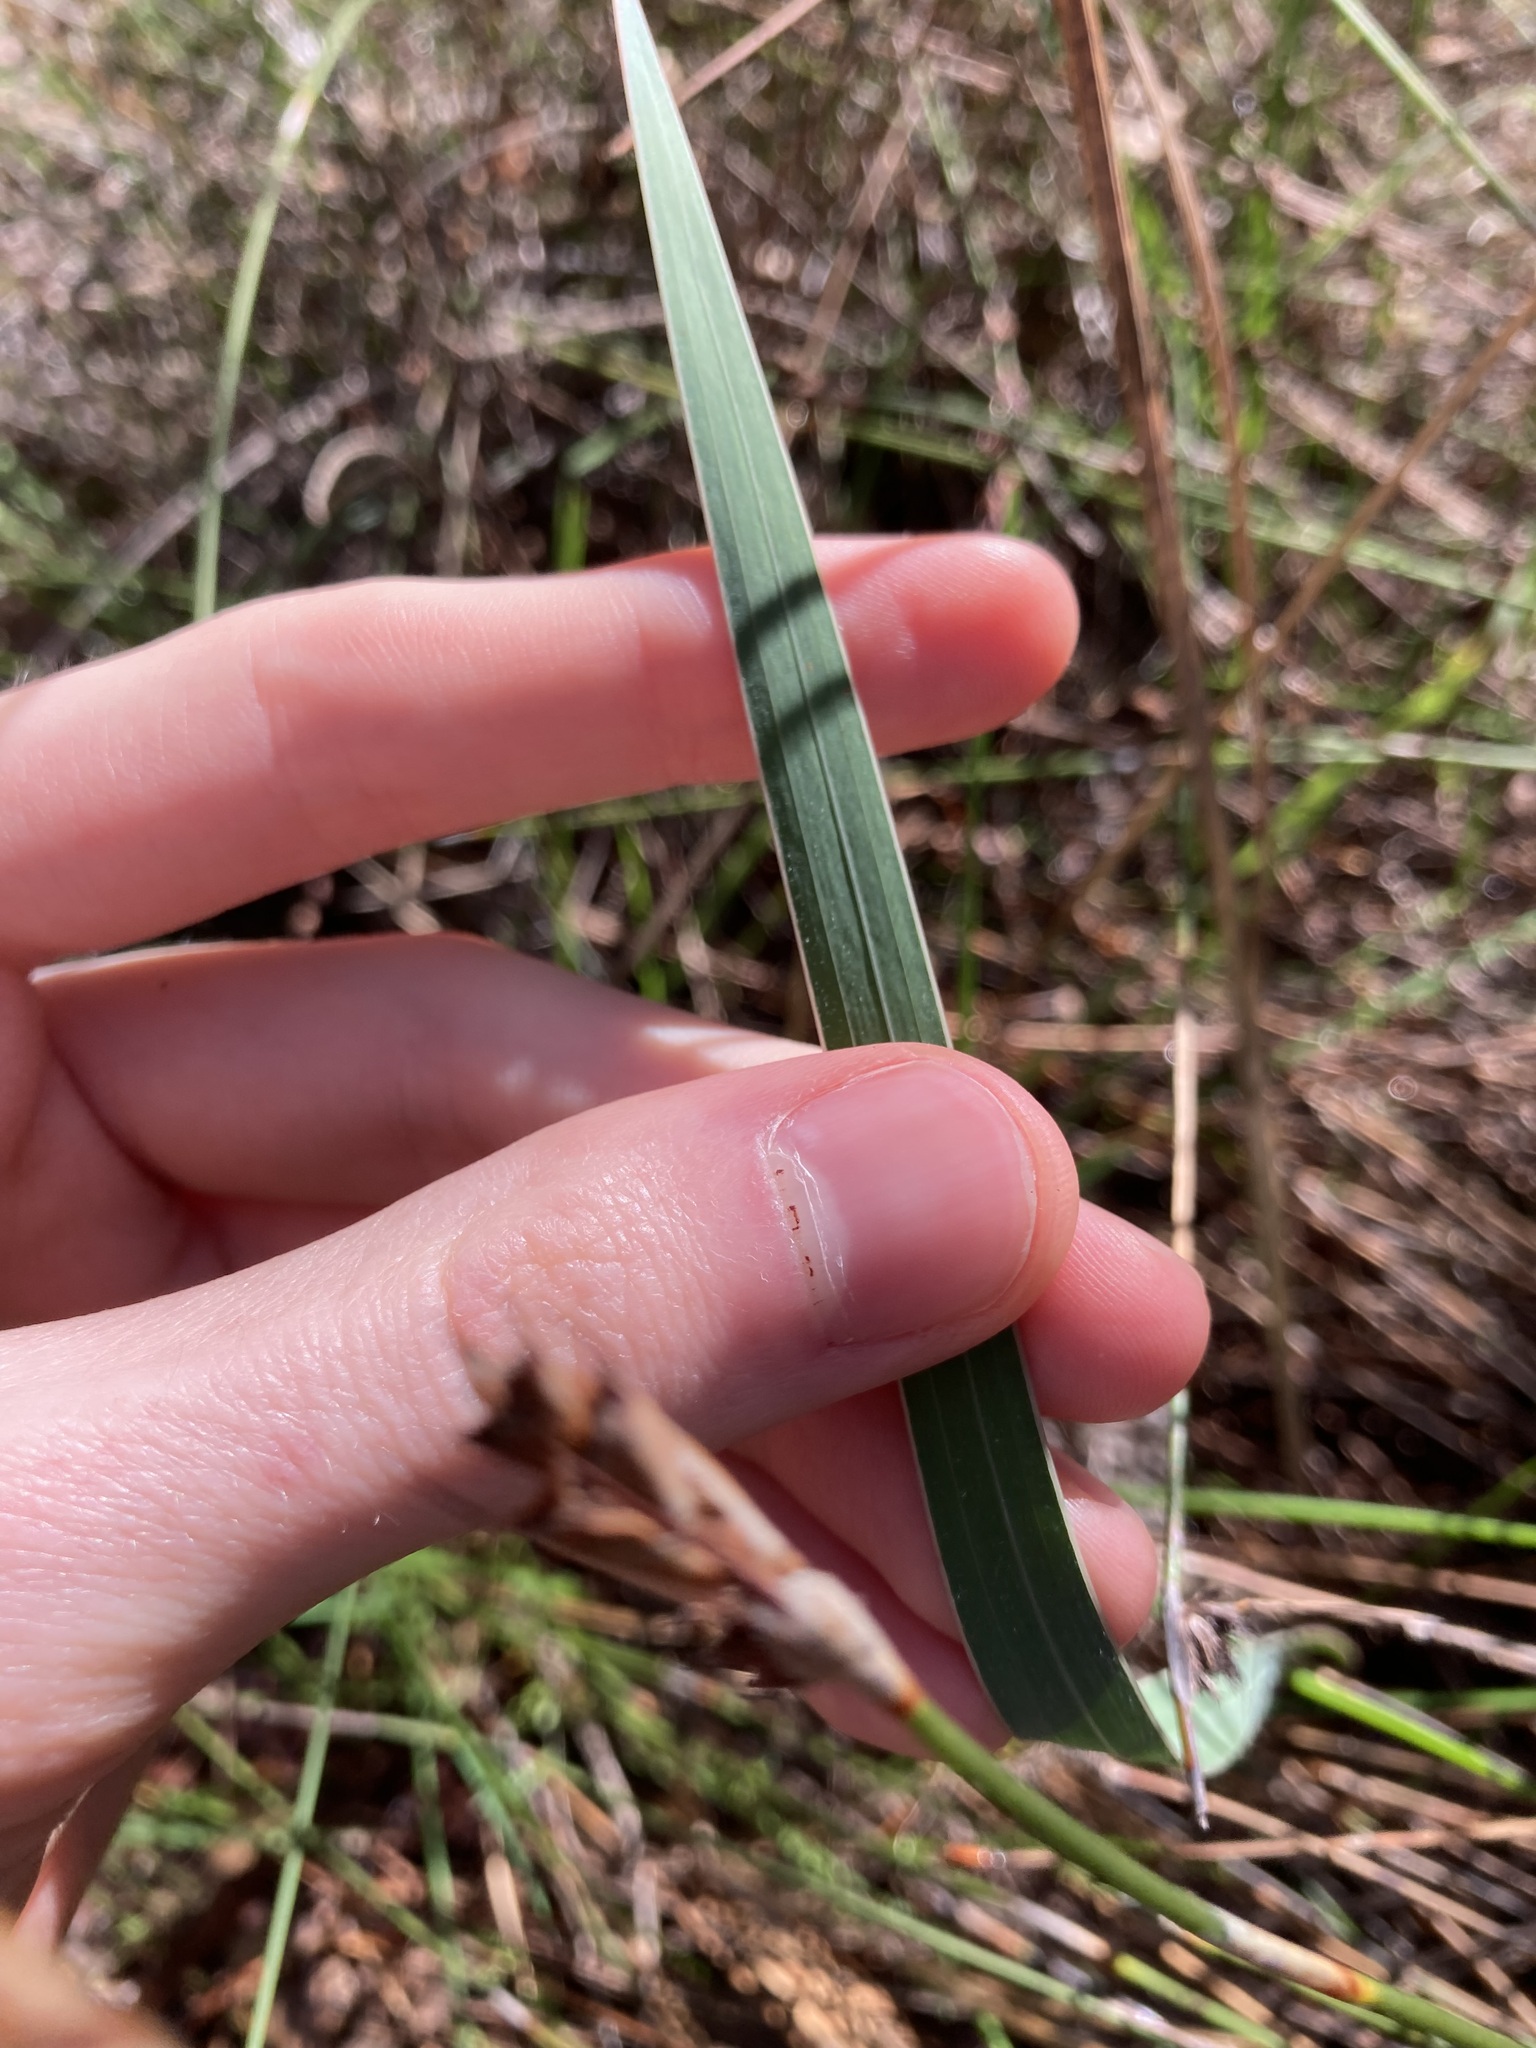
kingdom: Plantae
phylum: Tracheophyta
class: Liliopsida
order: Asparagales
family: Iridaceae
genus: Gladiolus
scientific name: Gladiolus caryophyllaceus
